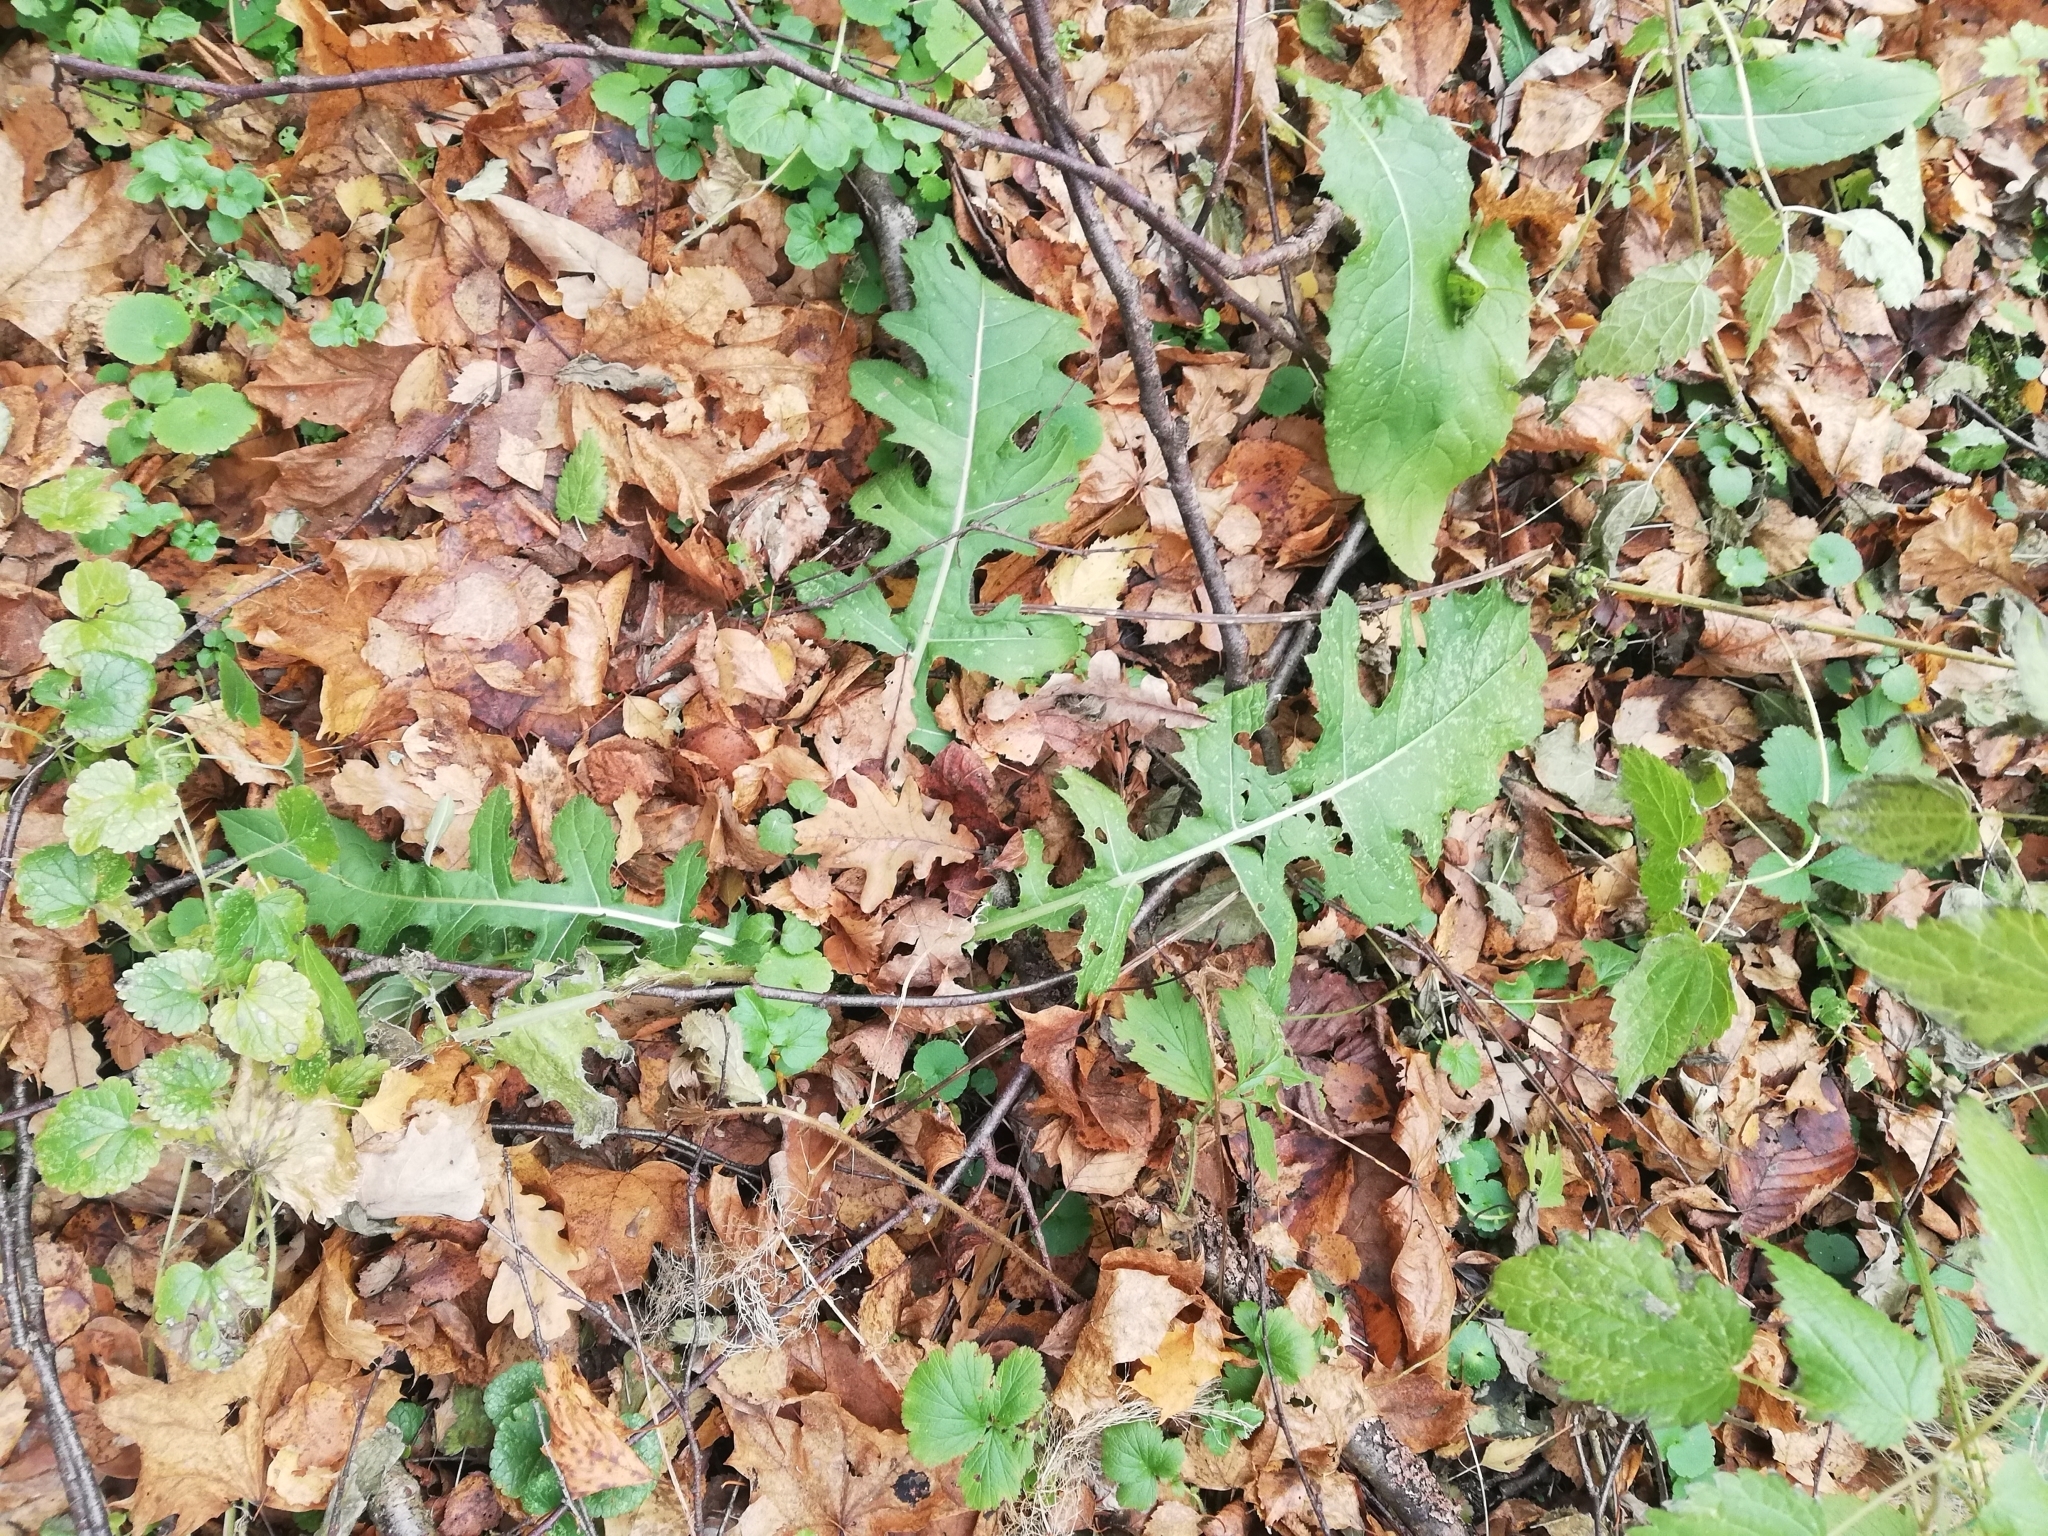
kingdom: Plantae
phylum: Tracheophyta
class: Magnoliopsida
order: Asterales
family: Asteraceae
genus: Cirsium
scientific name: Cirsium oleraceum
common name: Cabbage thistle
